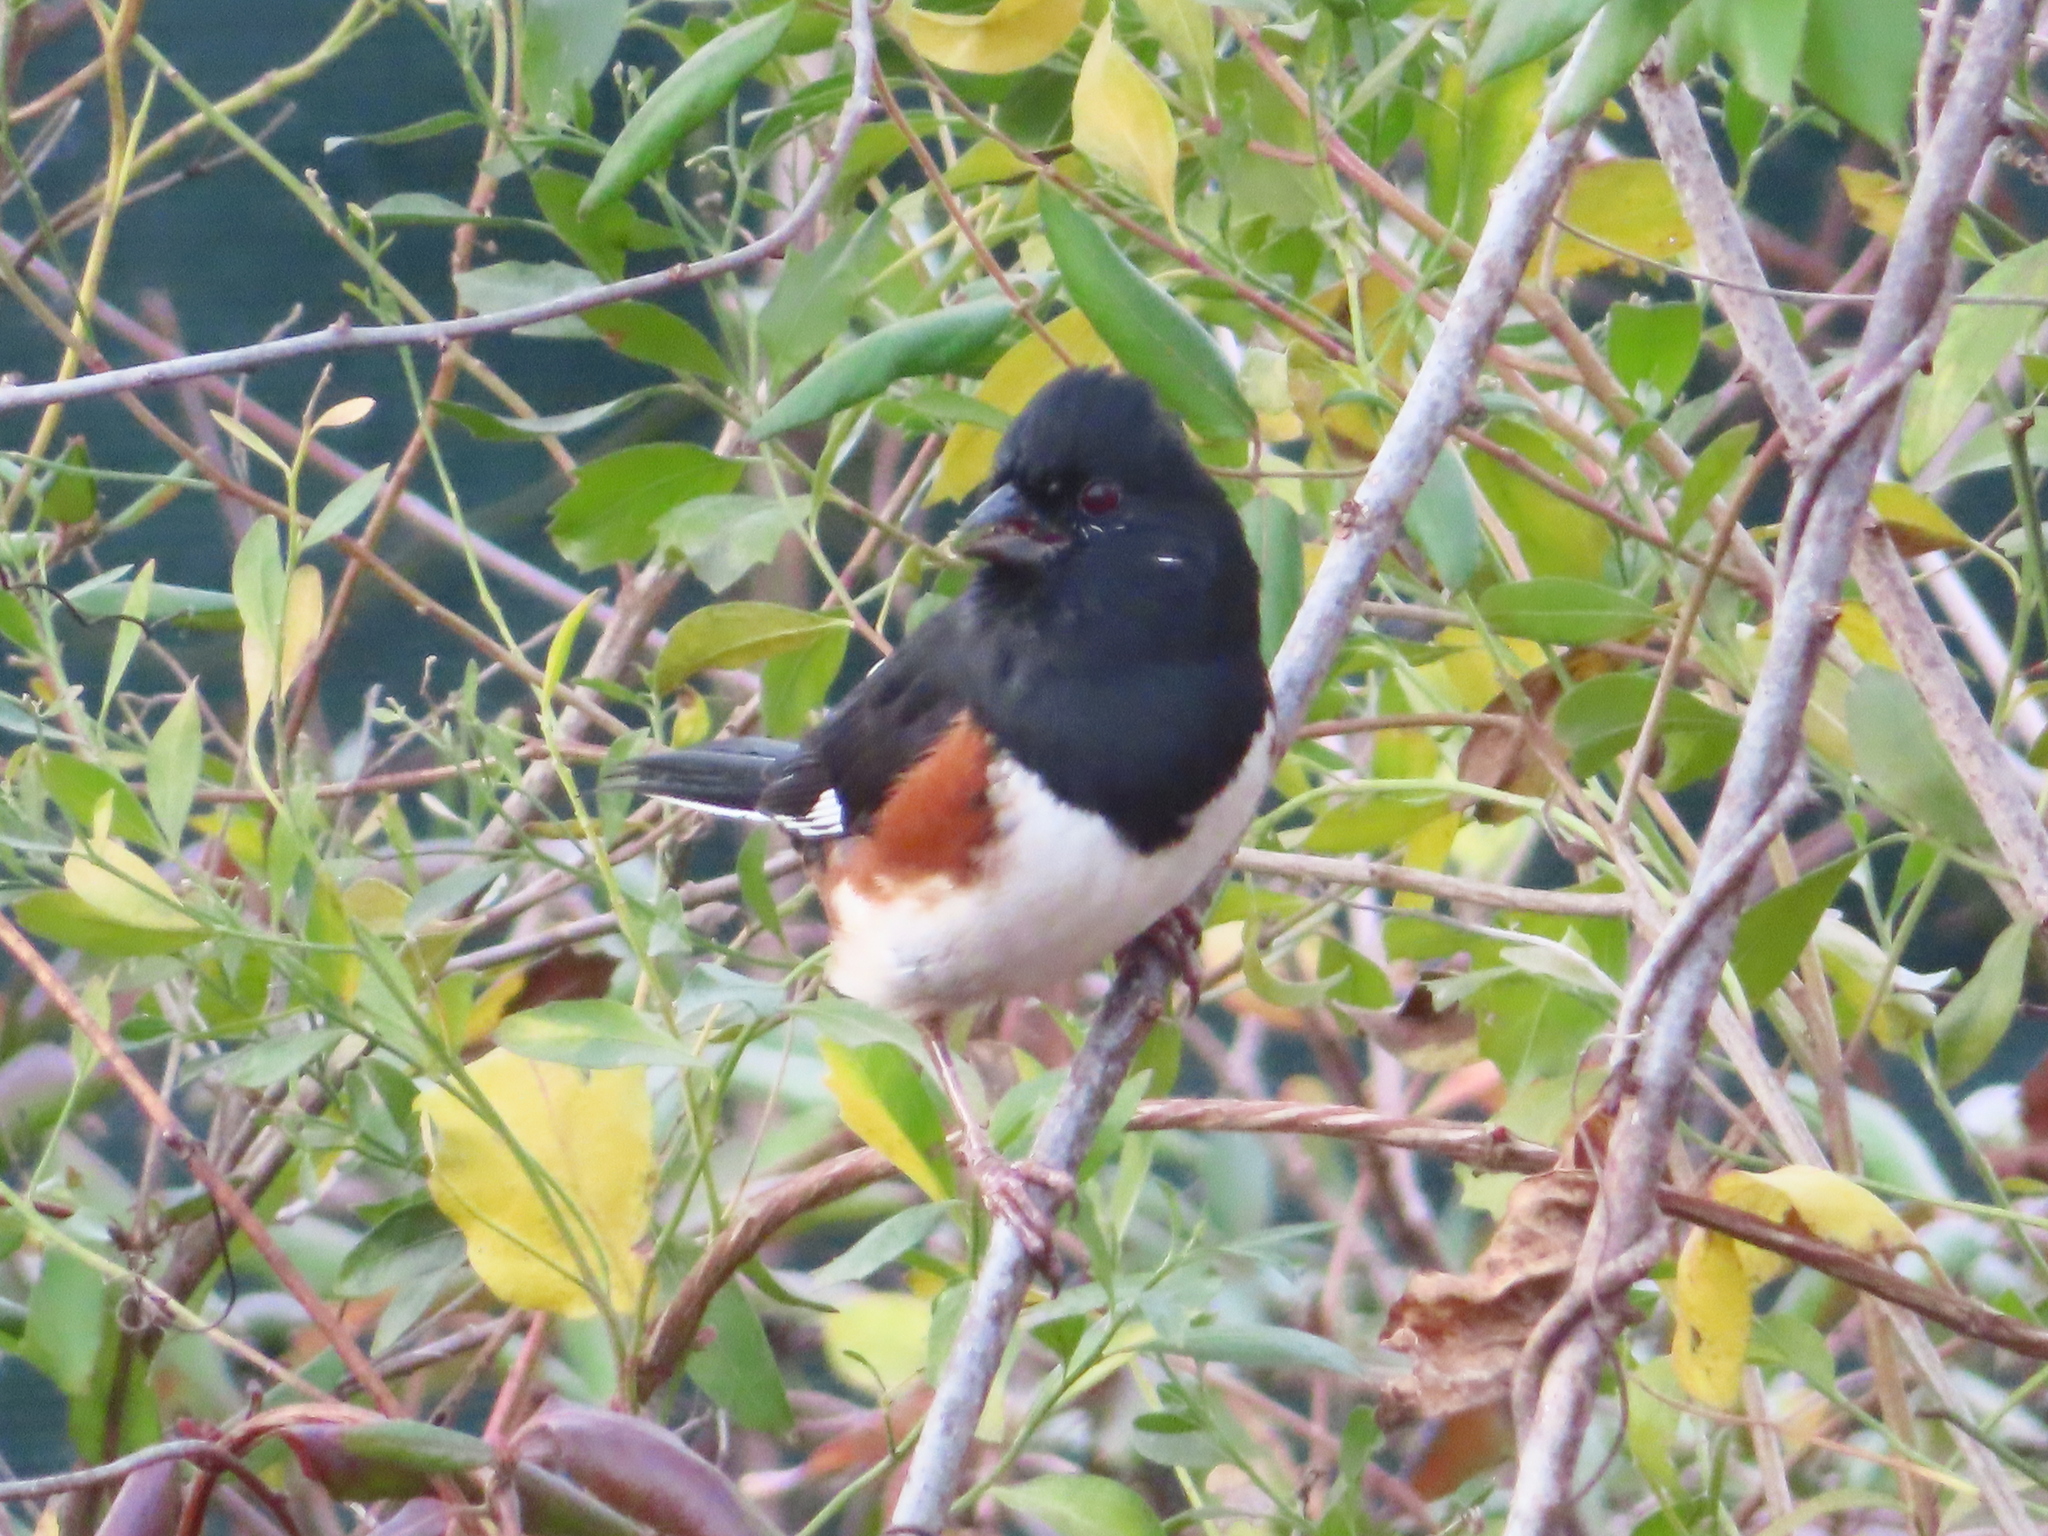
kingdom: Animalia
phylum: Chordata
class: Aves
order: Passeriformes
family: Passerellidae
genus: Pipilo
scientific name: Pipilo erythrophthalmus
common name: Eastern towhee
